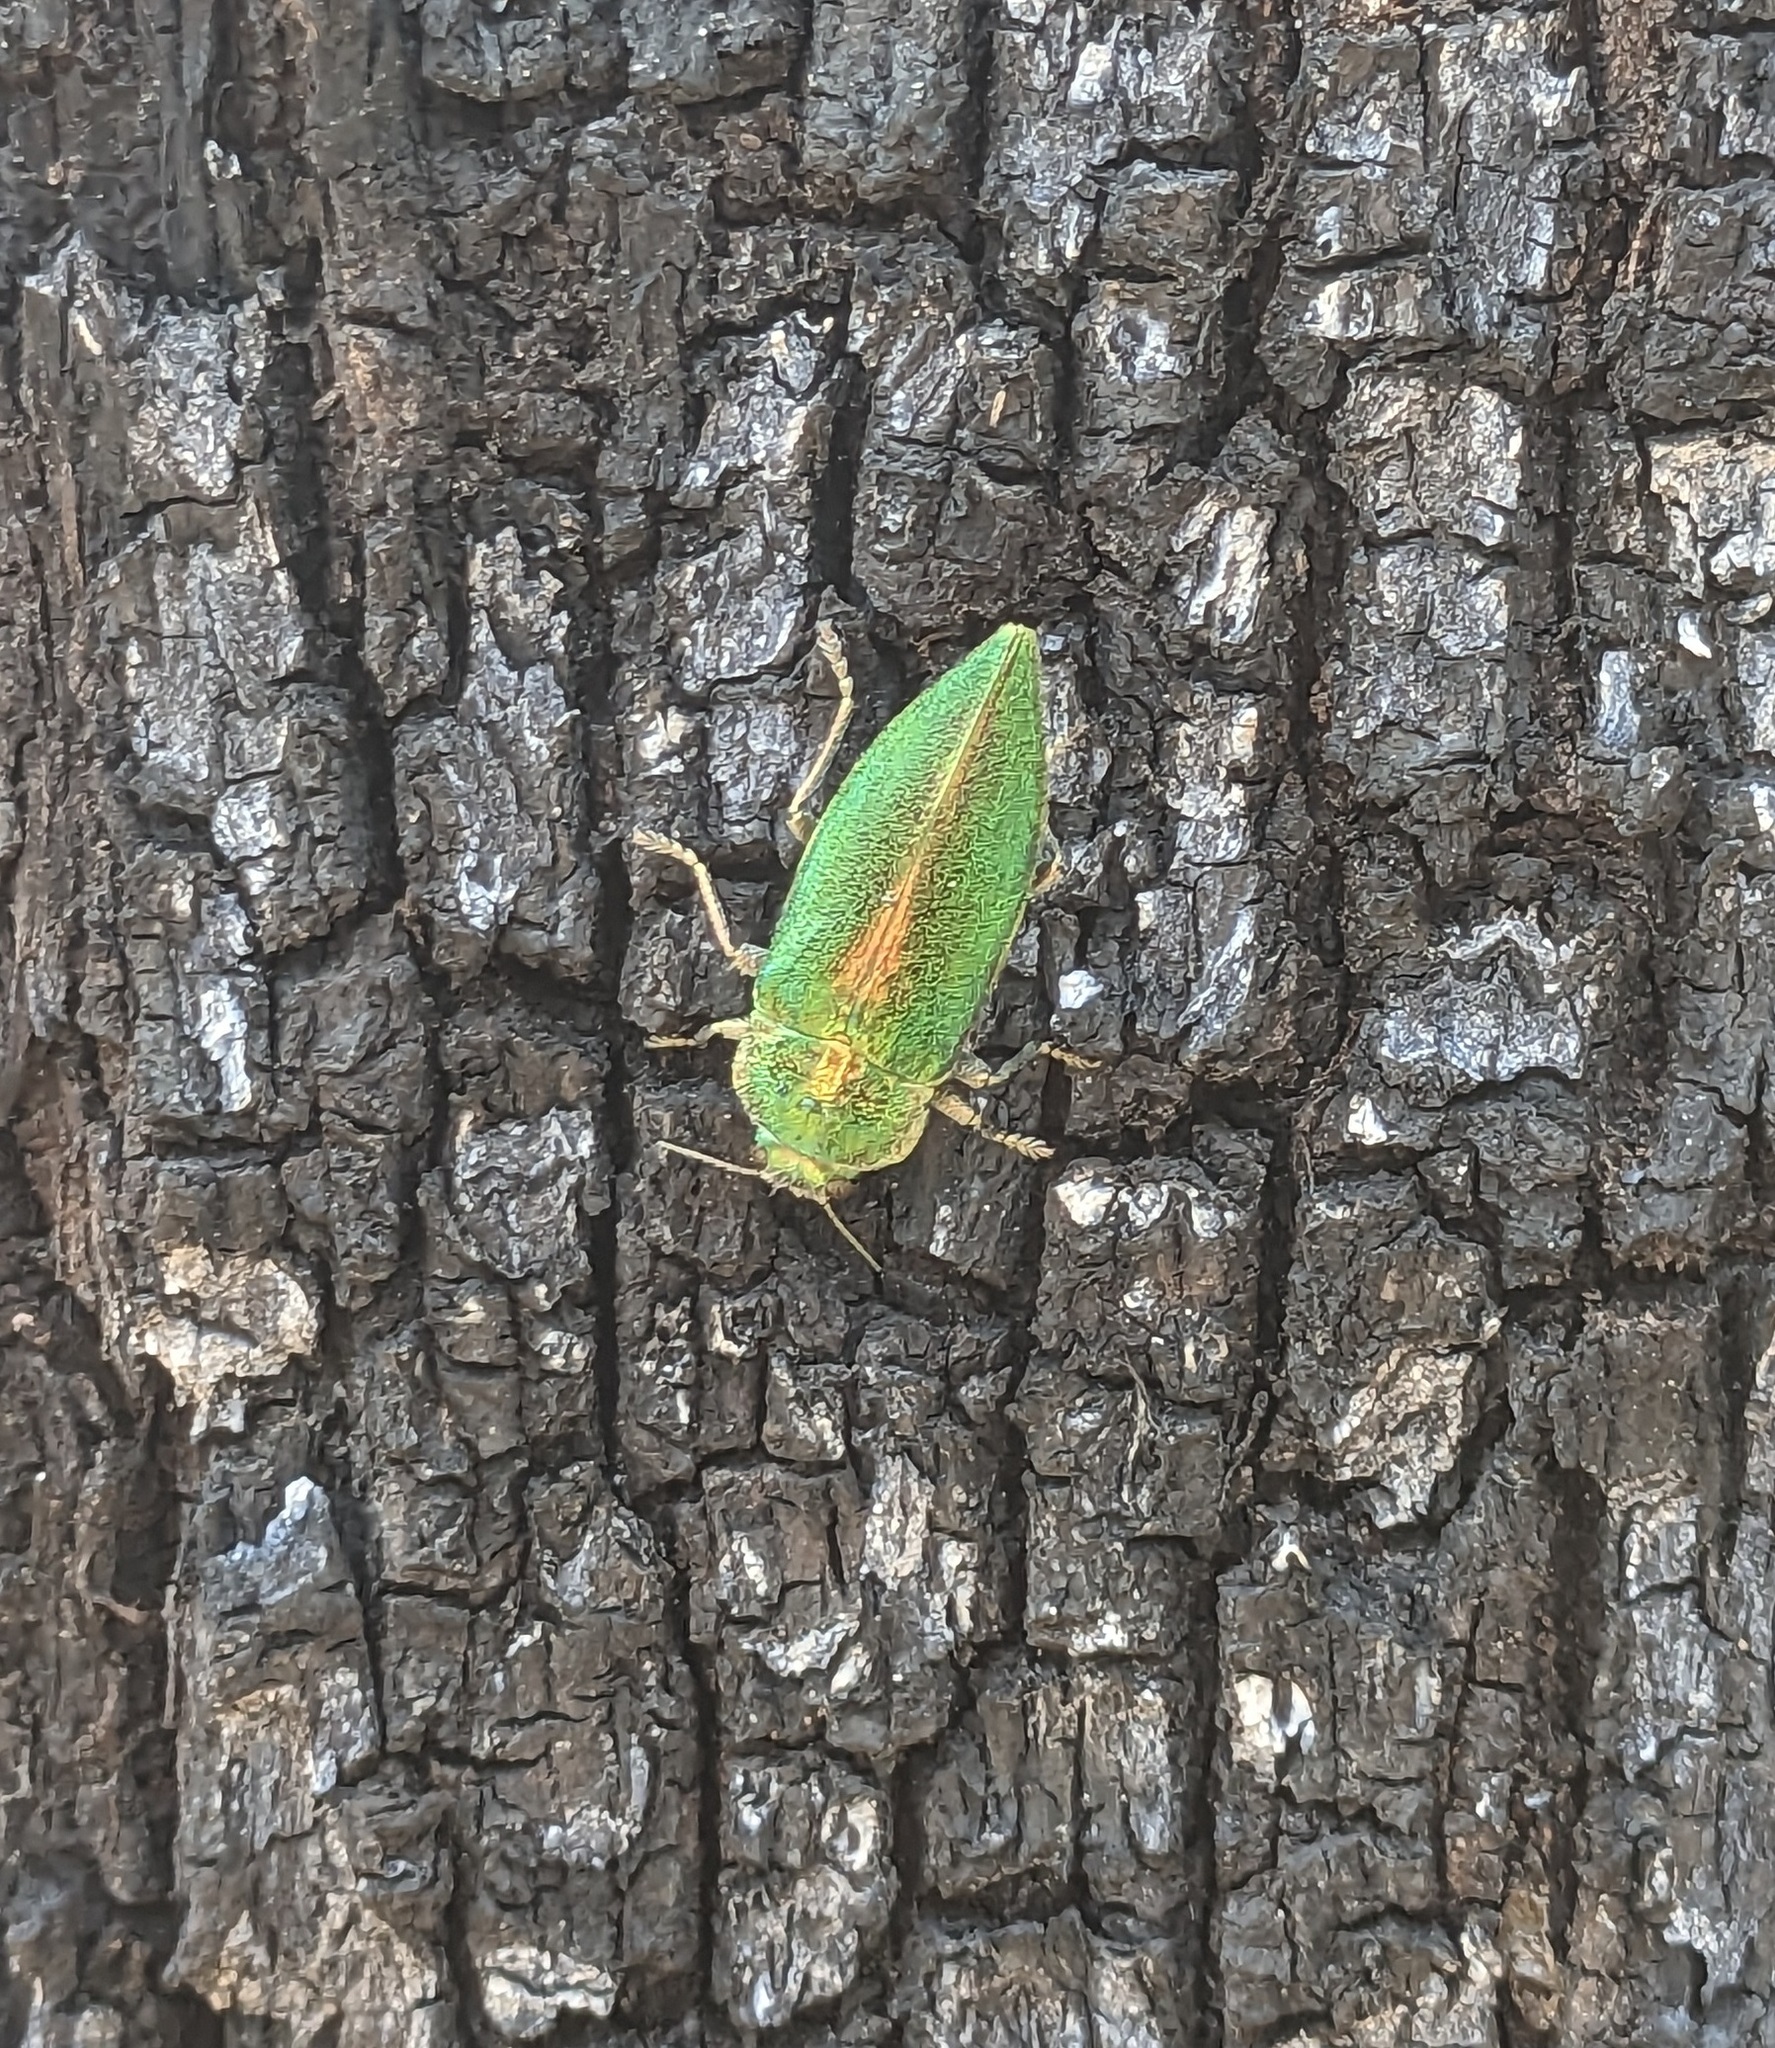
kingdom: Animalia
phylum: Arthropoda
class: Insecta
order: Coleoptera
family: Buprestidae
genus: Latipalpis
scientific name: Latipalpis plana
